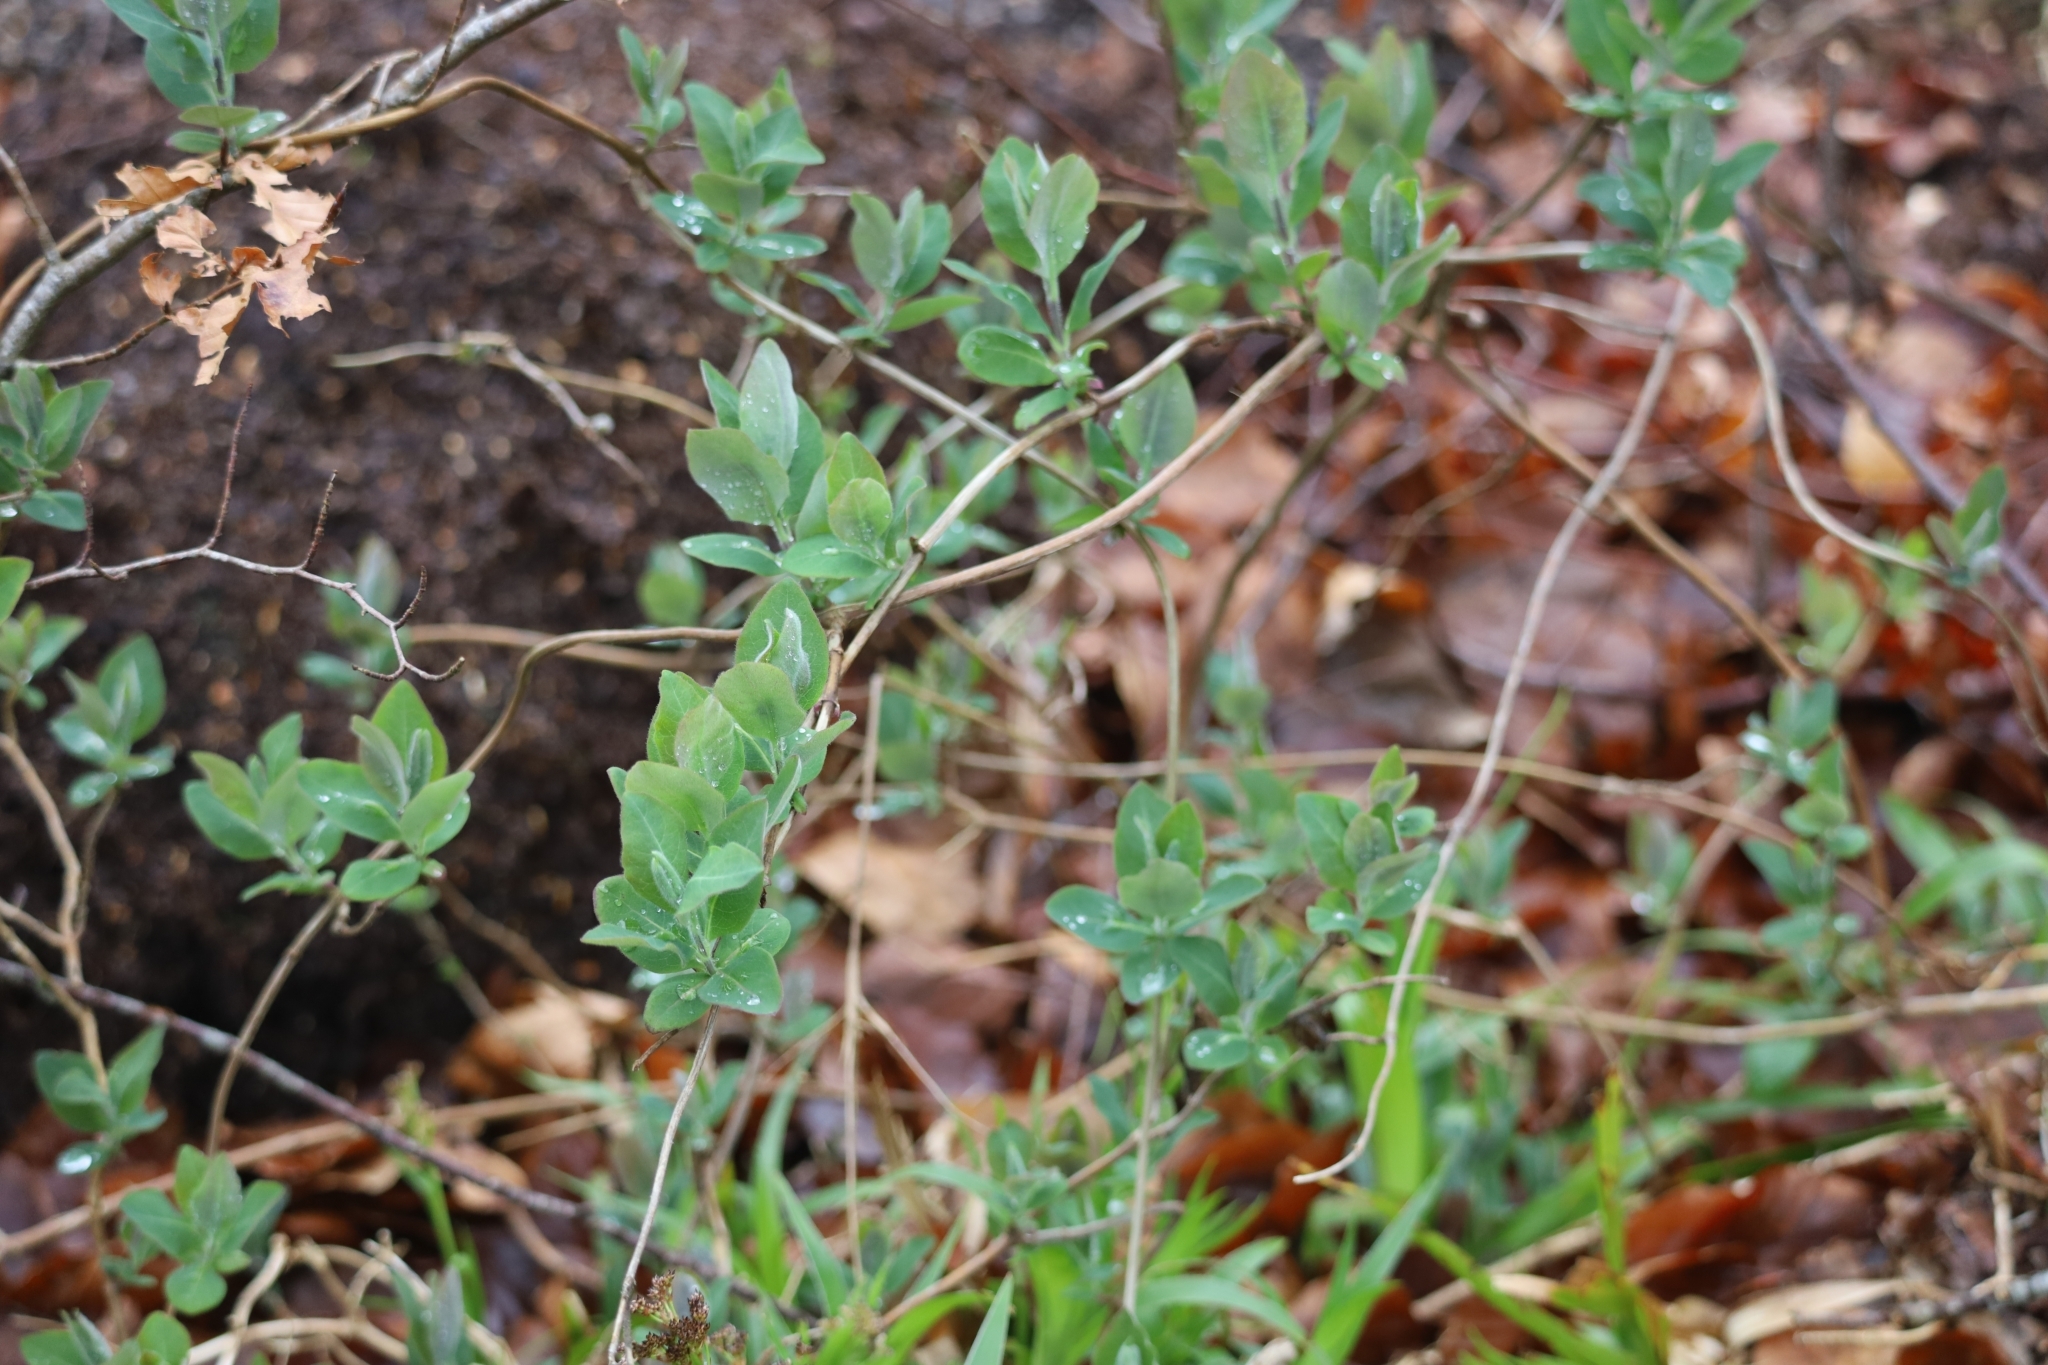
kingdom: Plantae
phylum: Tracheophyta
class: Magnoliopsida
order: Dipsacales
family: Caprifoliaceae
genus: Lonicera
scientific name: Lonicera periclymenum
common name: European honeysuckle
